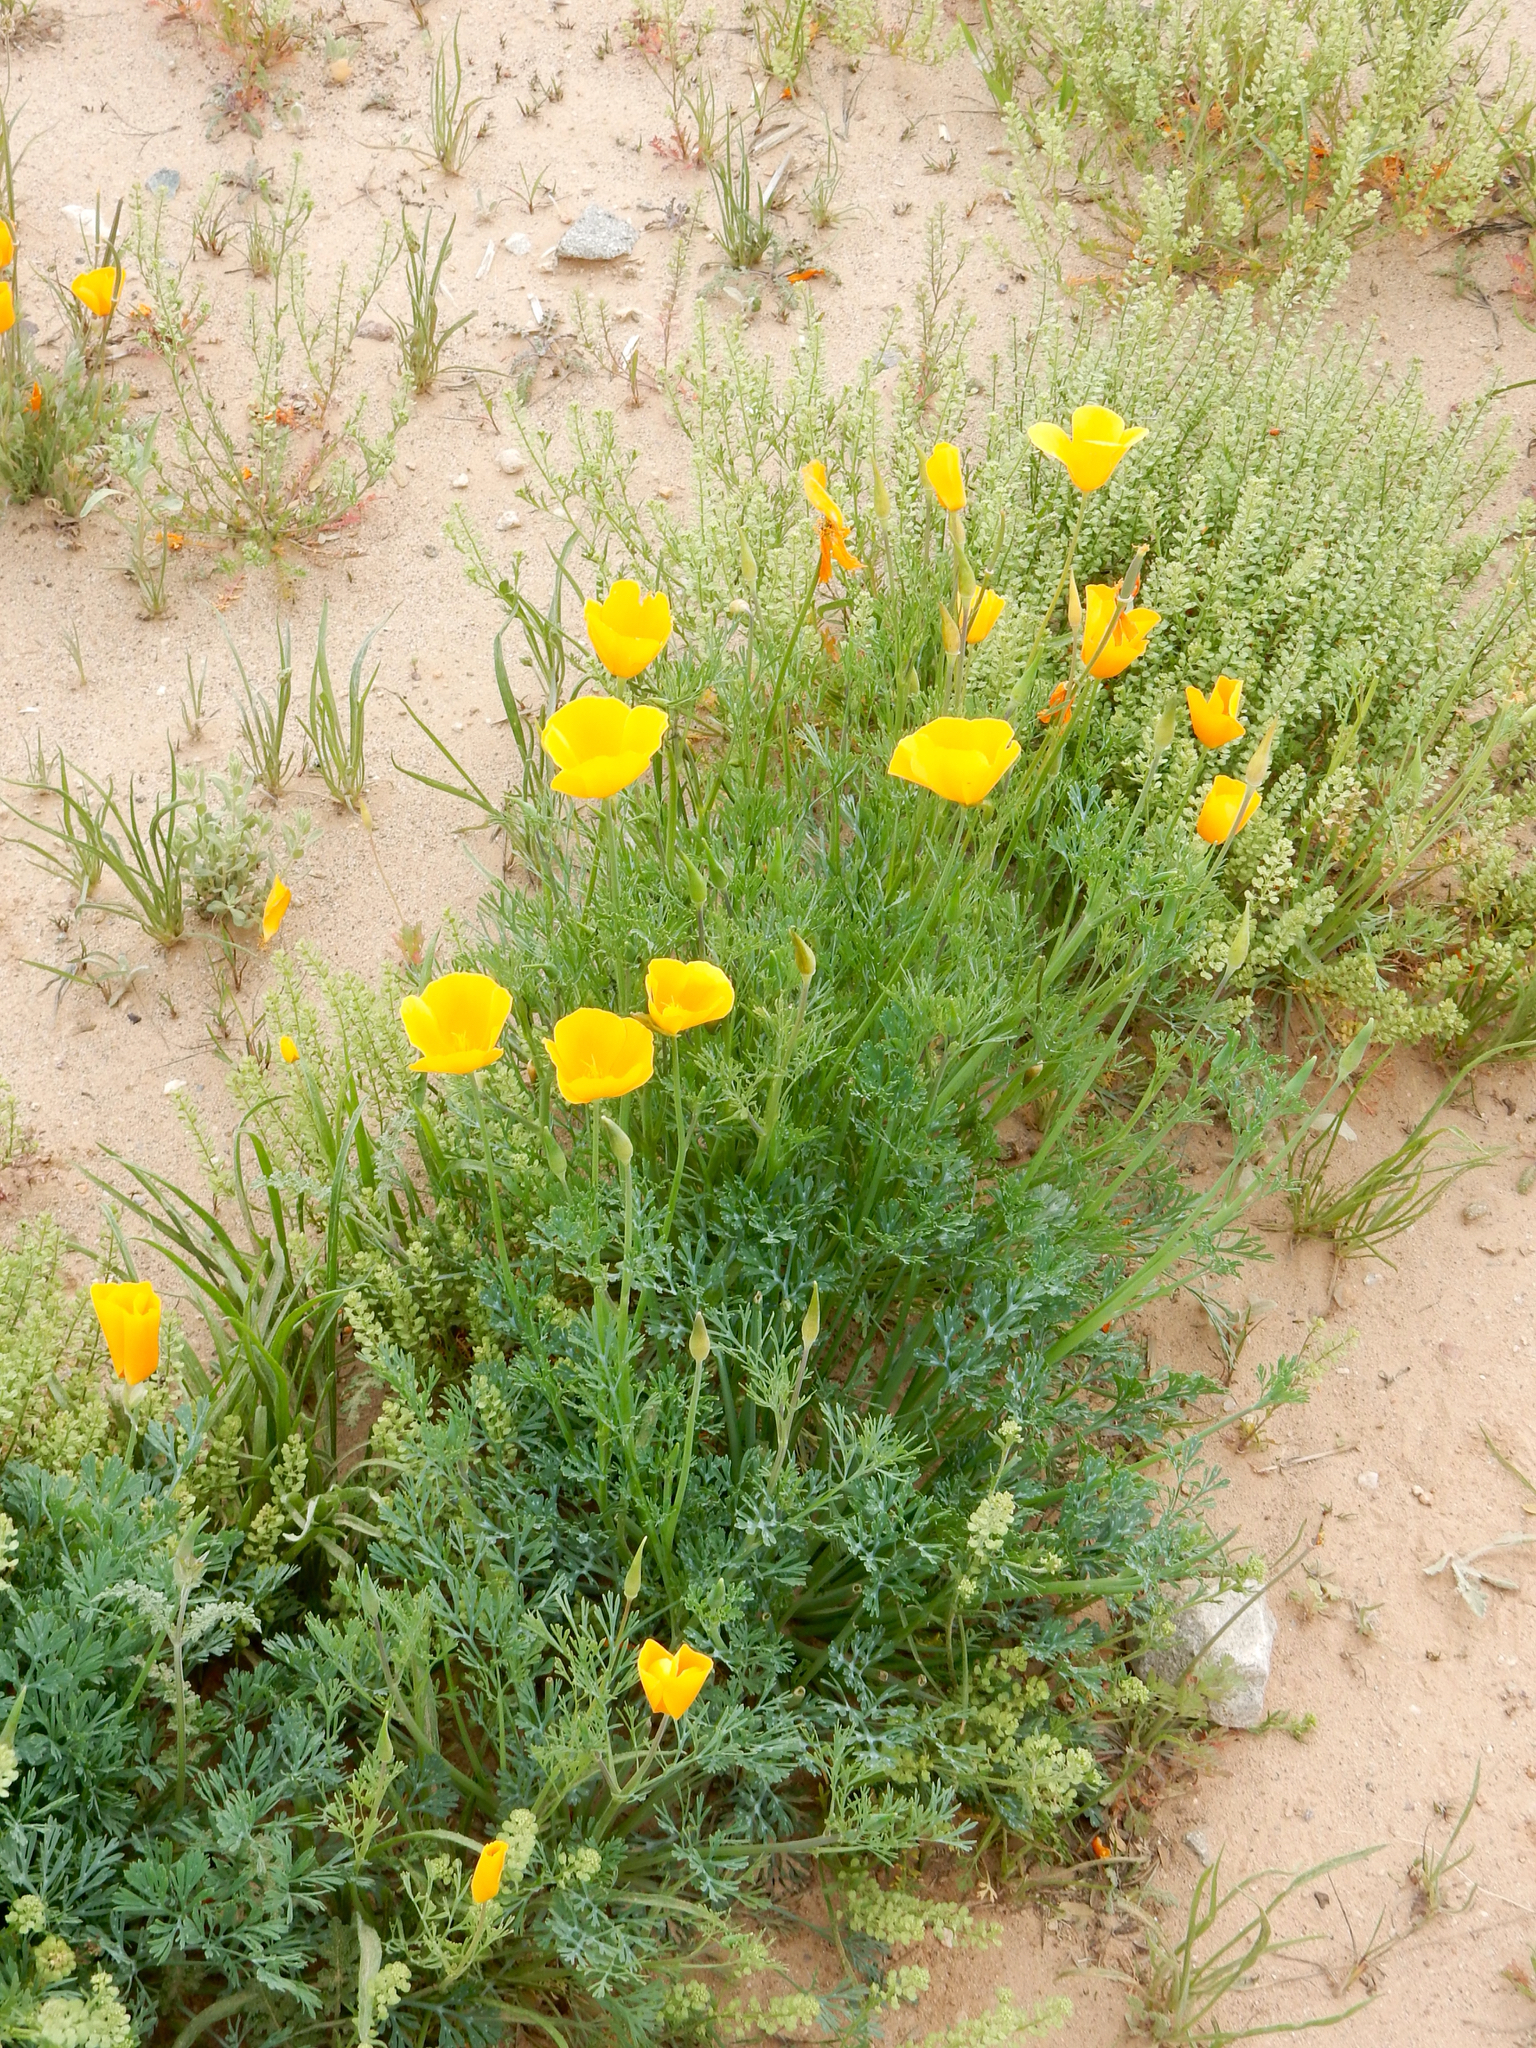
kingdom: Plantae
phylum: Tracheophyta
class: Magnoliopsida
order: Ranunculales
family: Papaveraceae
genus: Eschscholzia
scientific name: Eschscholzia californica
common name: California poppy
